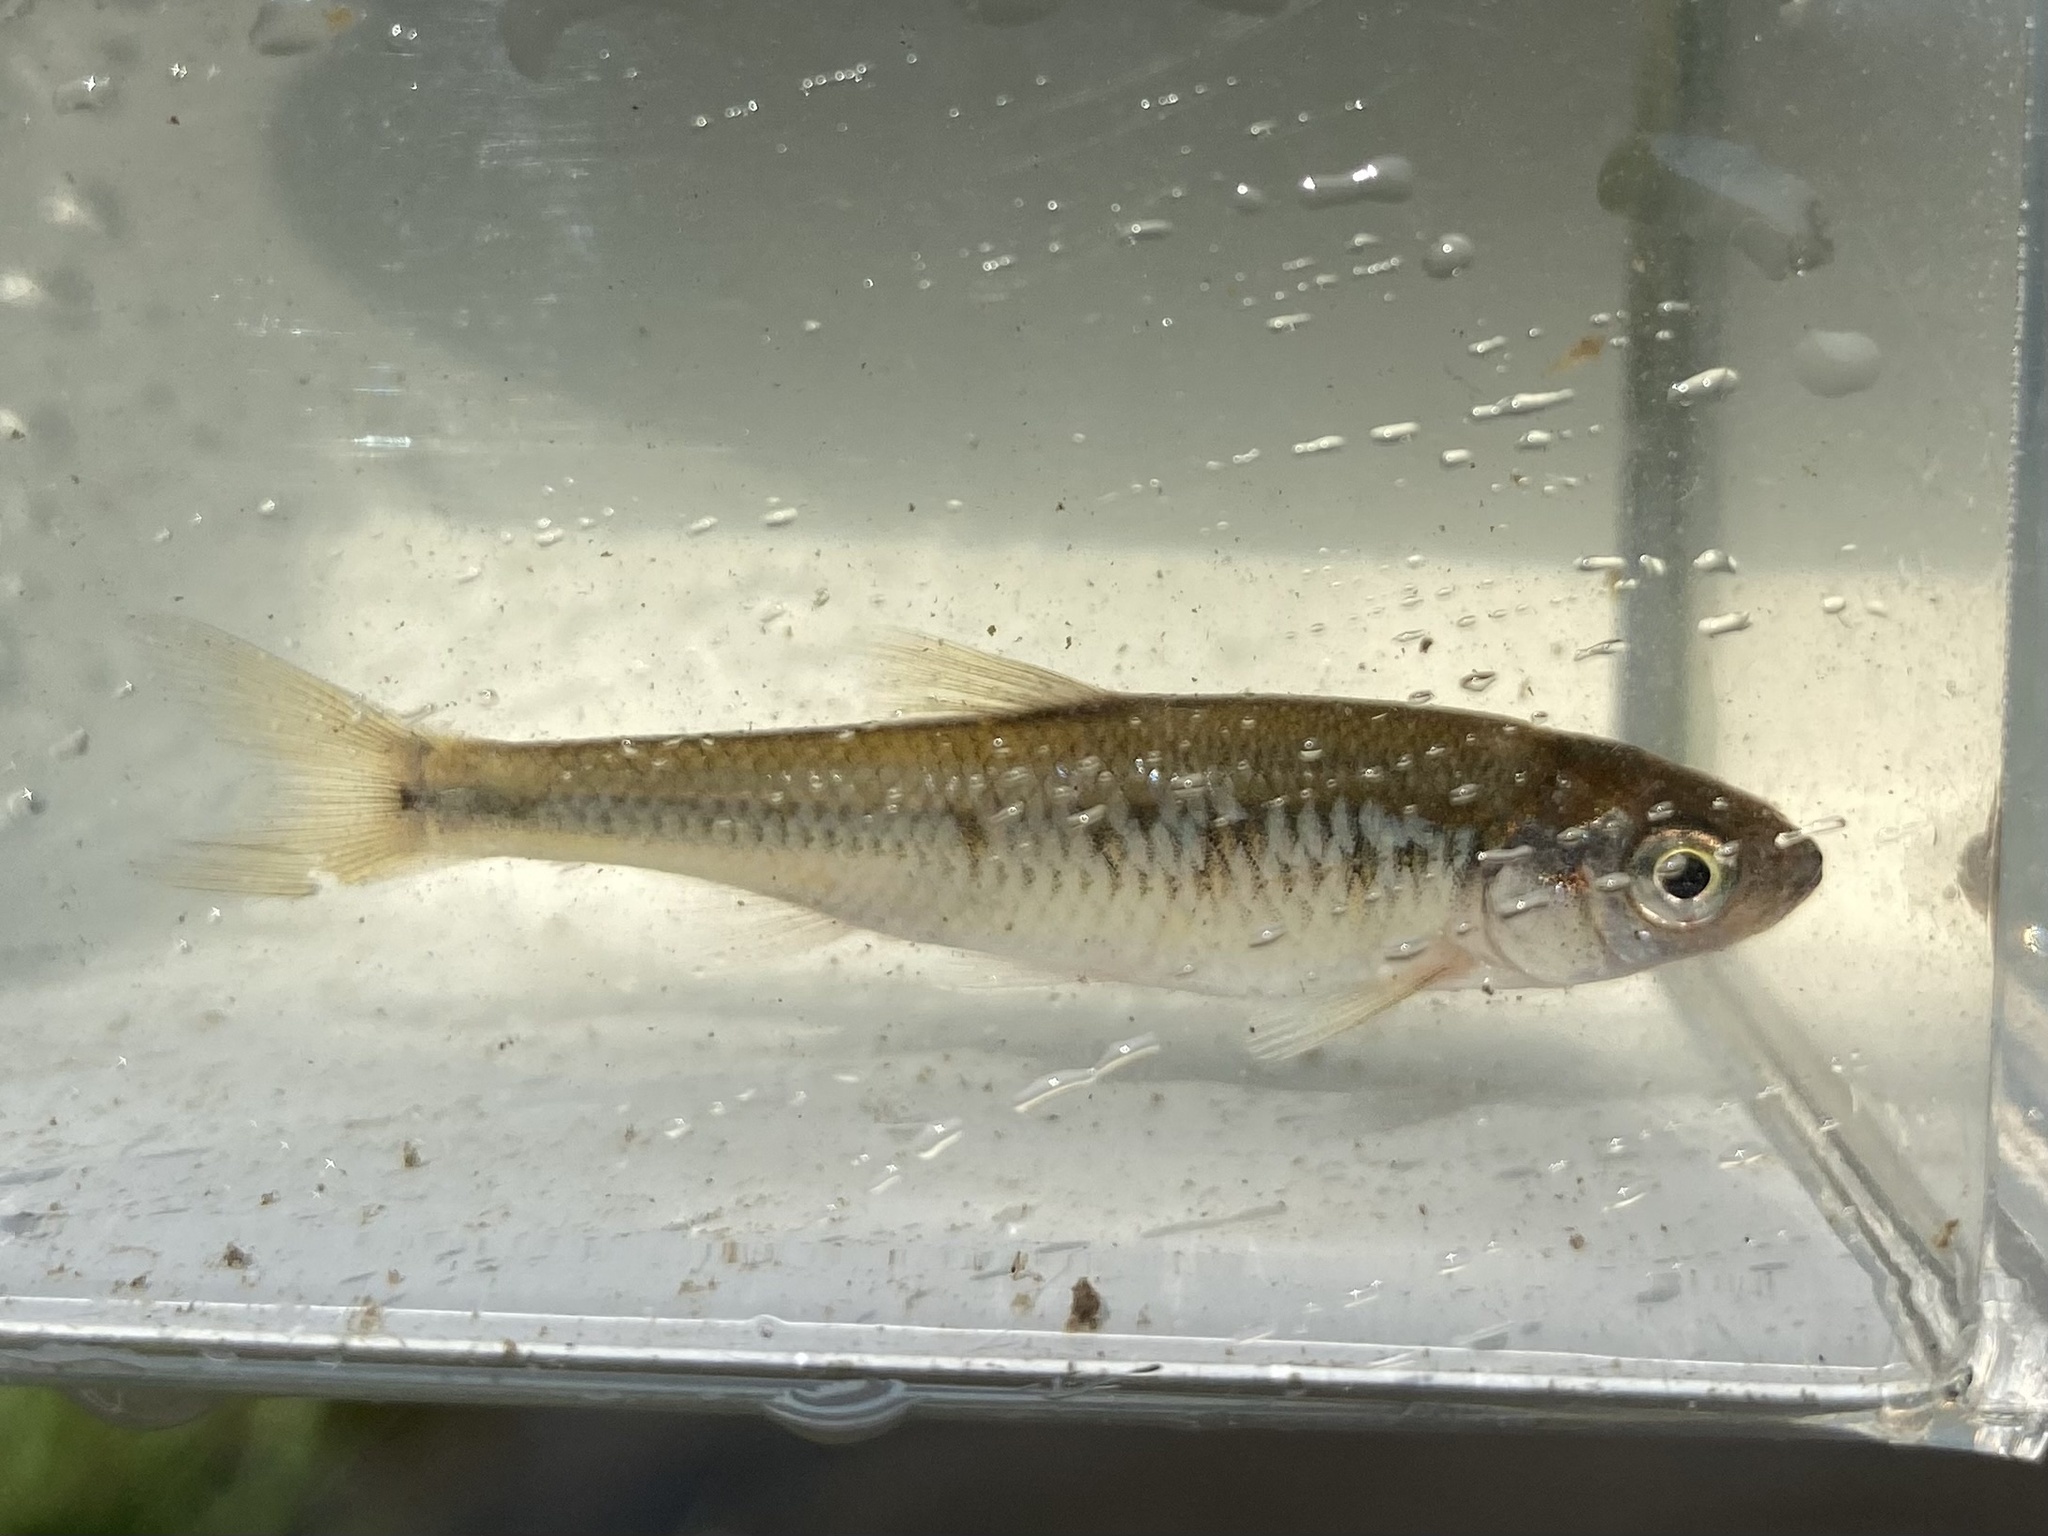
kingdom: Animalia
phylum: Chordata
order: Cypriniformes
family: Cyprinidae
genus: Luxilus
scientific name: Luxilus cornutus
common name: Common shiner
